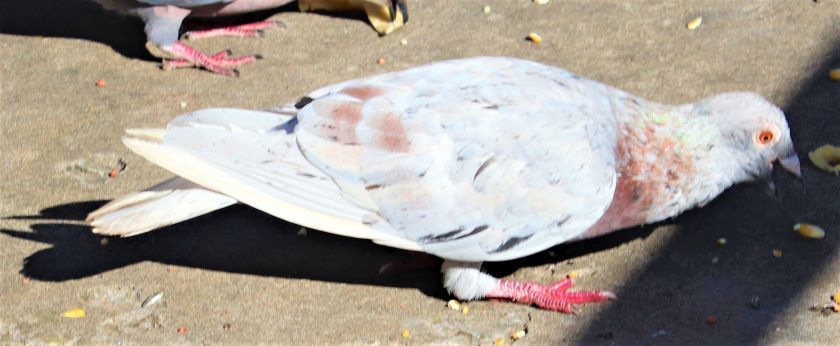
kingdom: Animalia
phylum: Chordata
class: Aves
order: Columbiformes
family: Columbidae
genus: Columba
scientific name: Columba livia
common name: Rock pigeon
